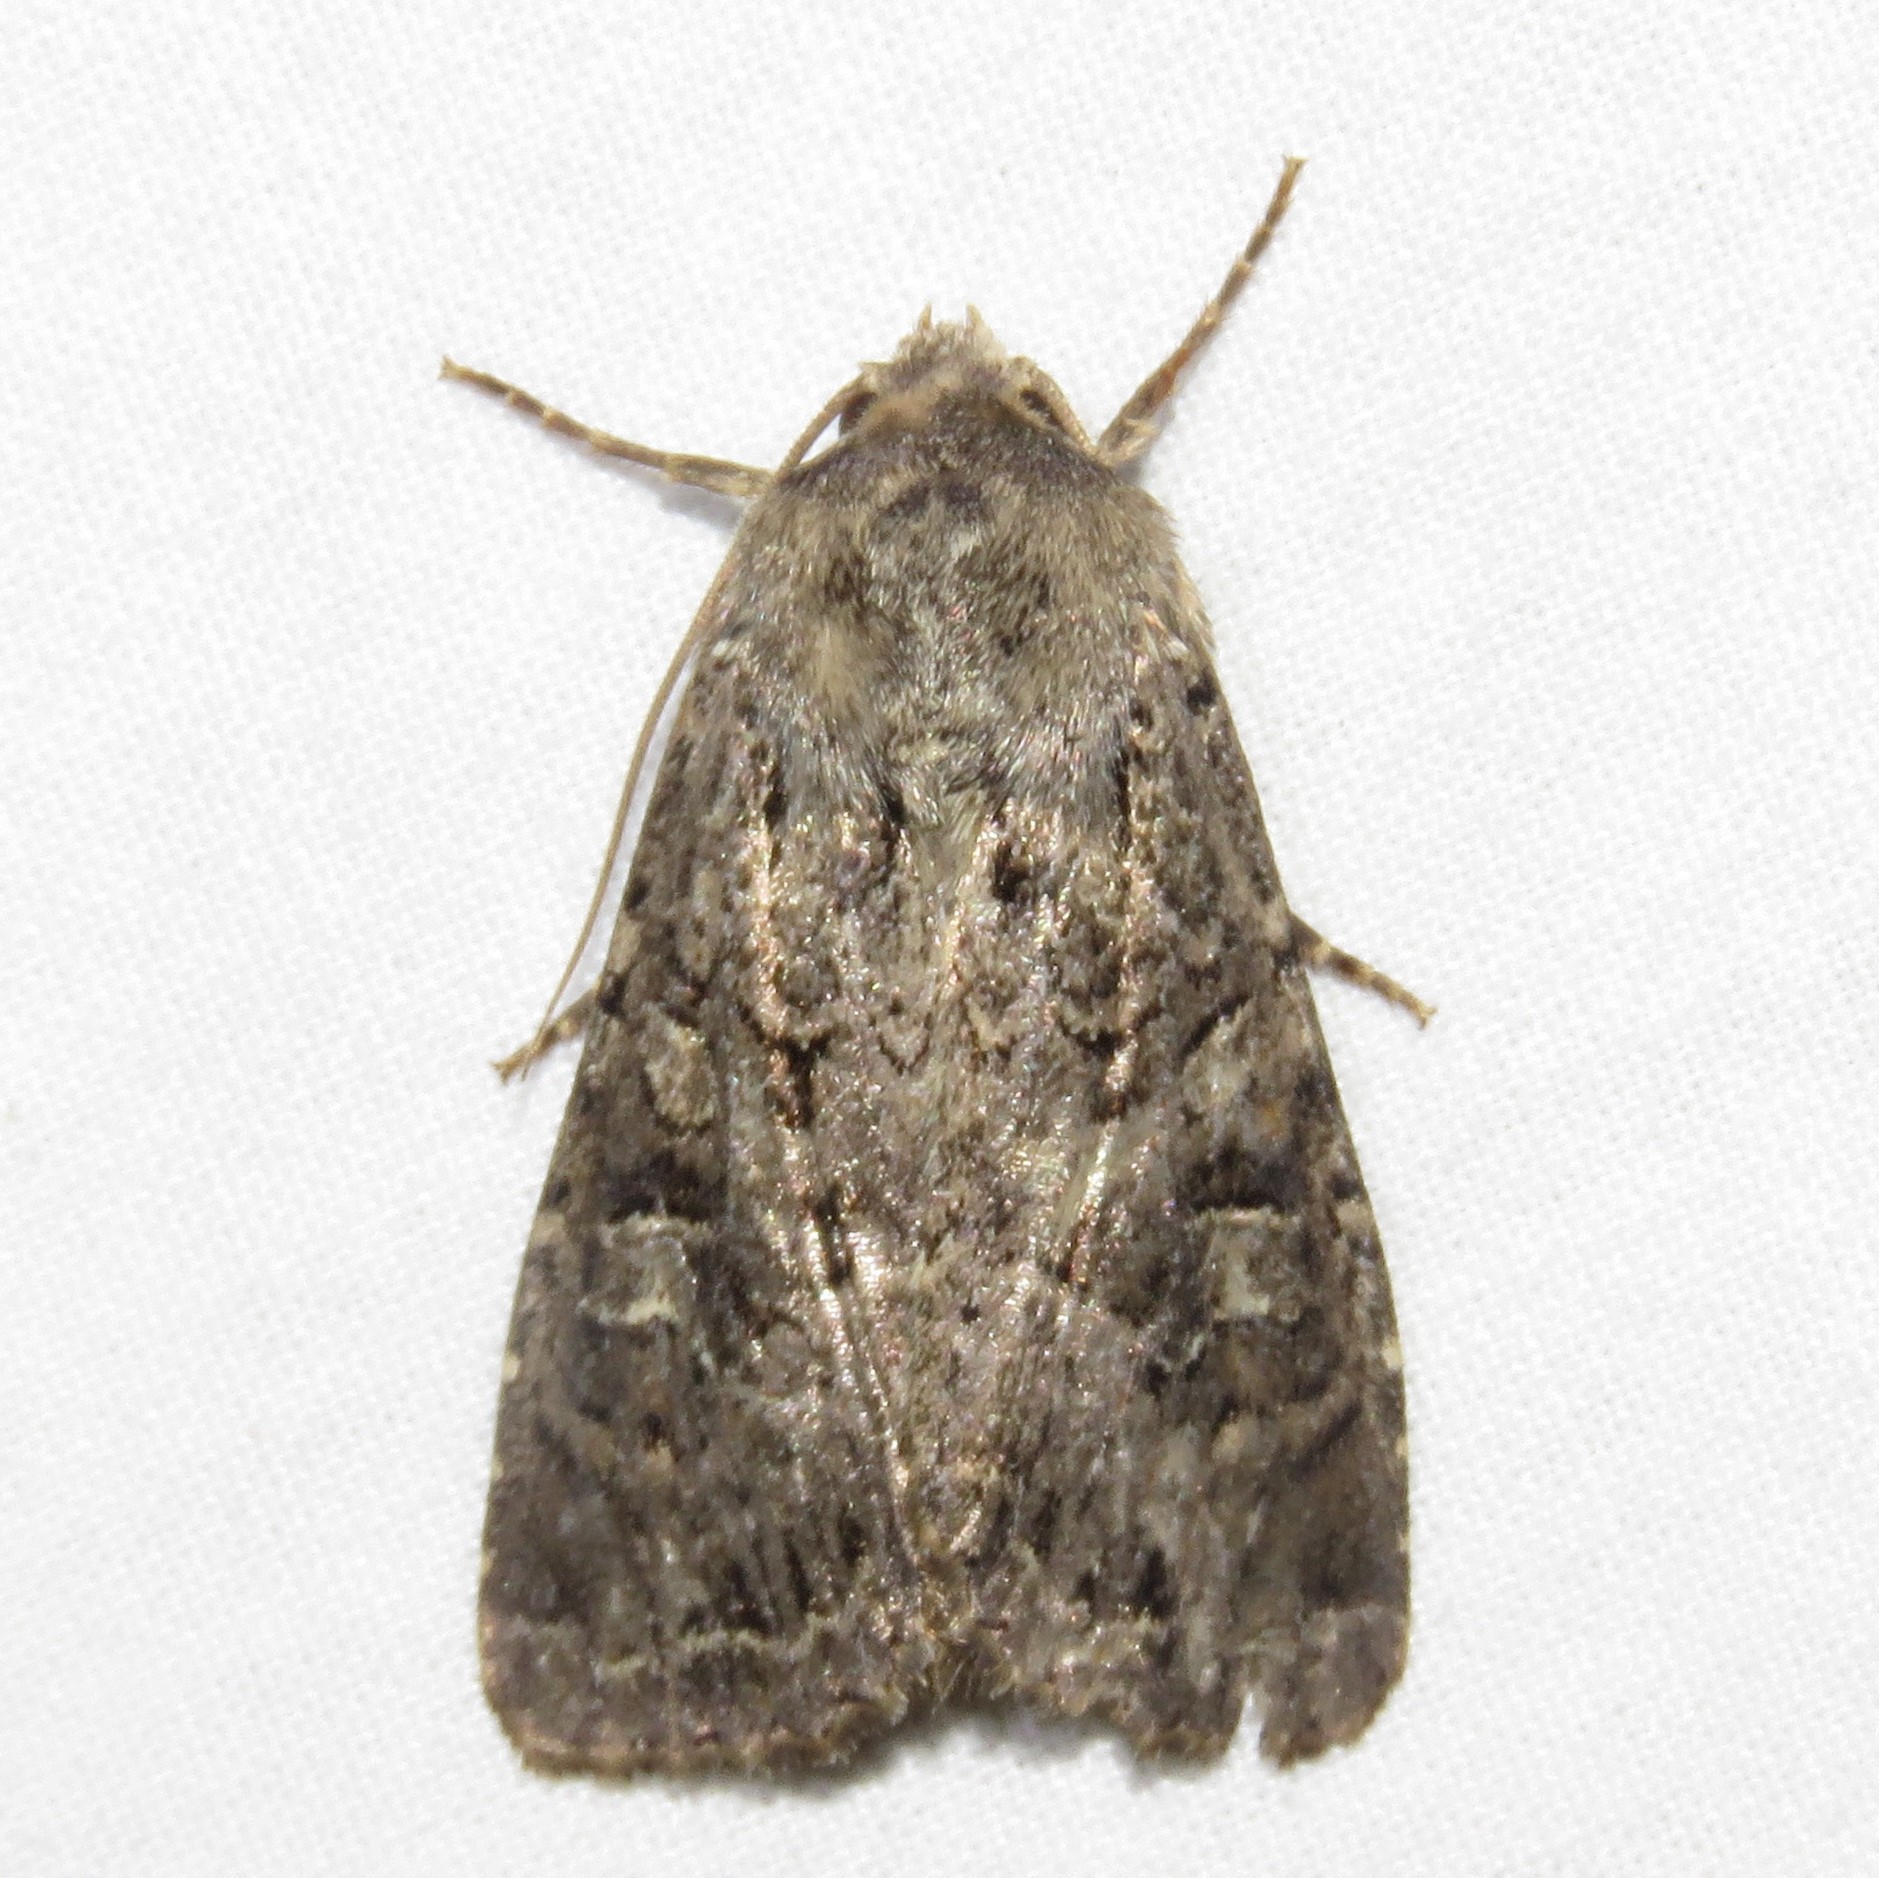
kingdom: Animalia
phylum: Arthropoda
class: Insecta
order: Lepidoptera
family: Noctuidae
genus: Apamea
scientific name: Apamea devastator
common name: Glassy cutworm
